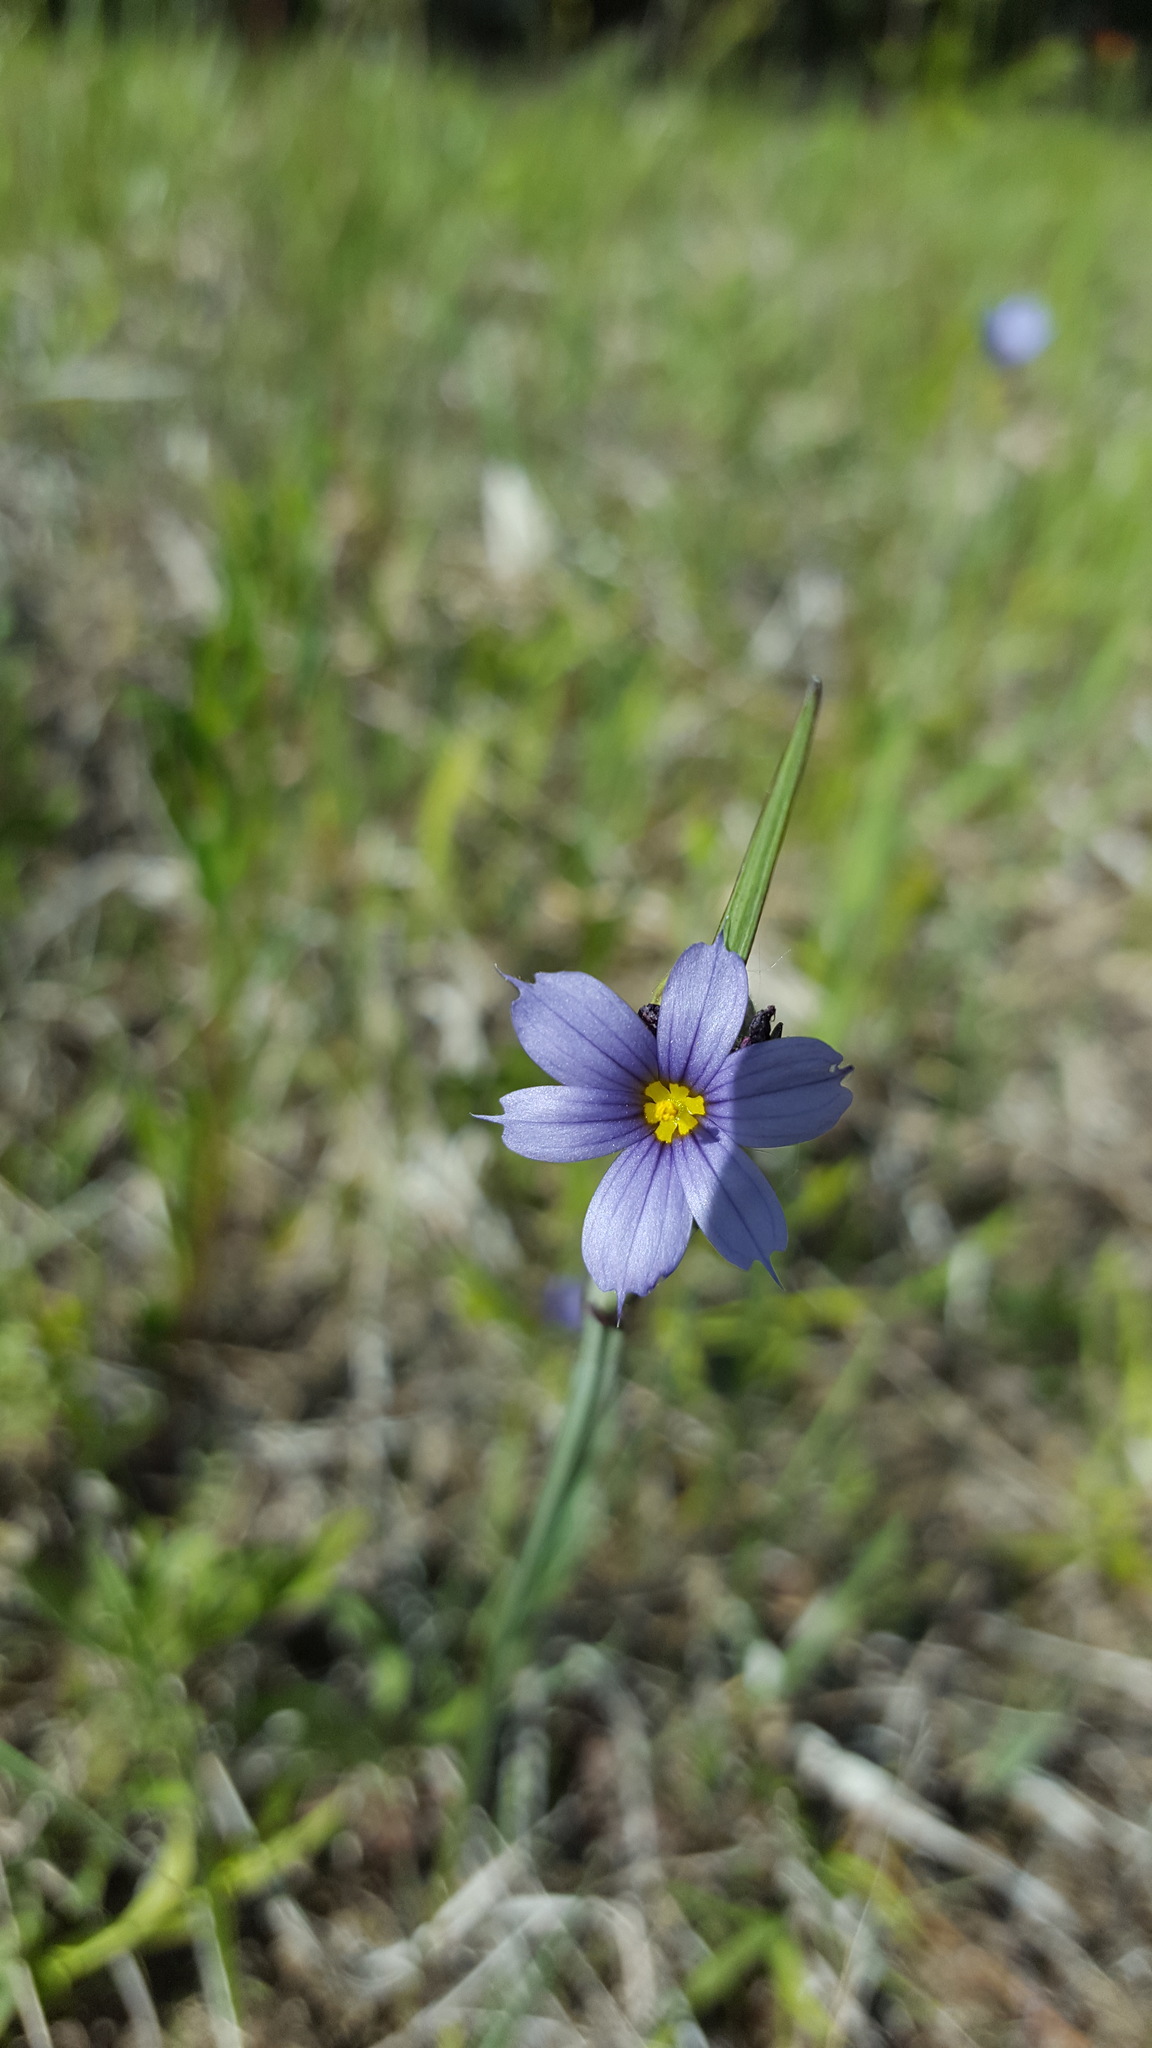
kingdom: Plantae
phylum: Tracheophyta
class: Liliopsida
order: Asparagales
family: Iridaceae
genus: Sisyrinchium
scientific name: Sisyrinchium montanum
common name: American blue-eyed-grass
